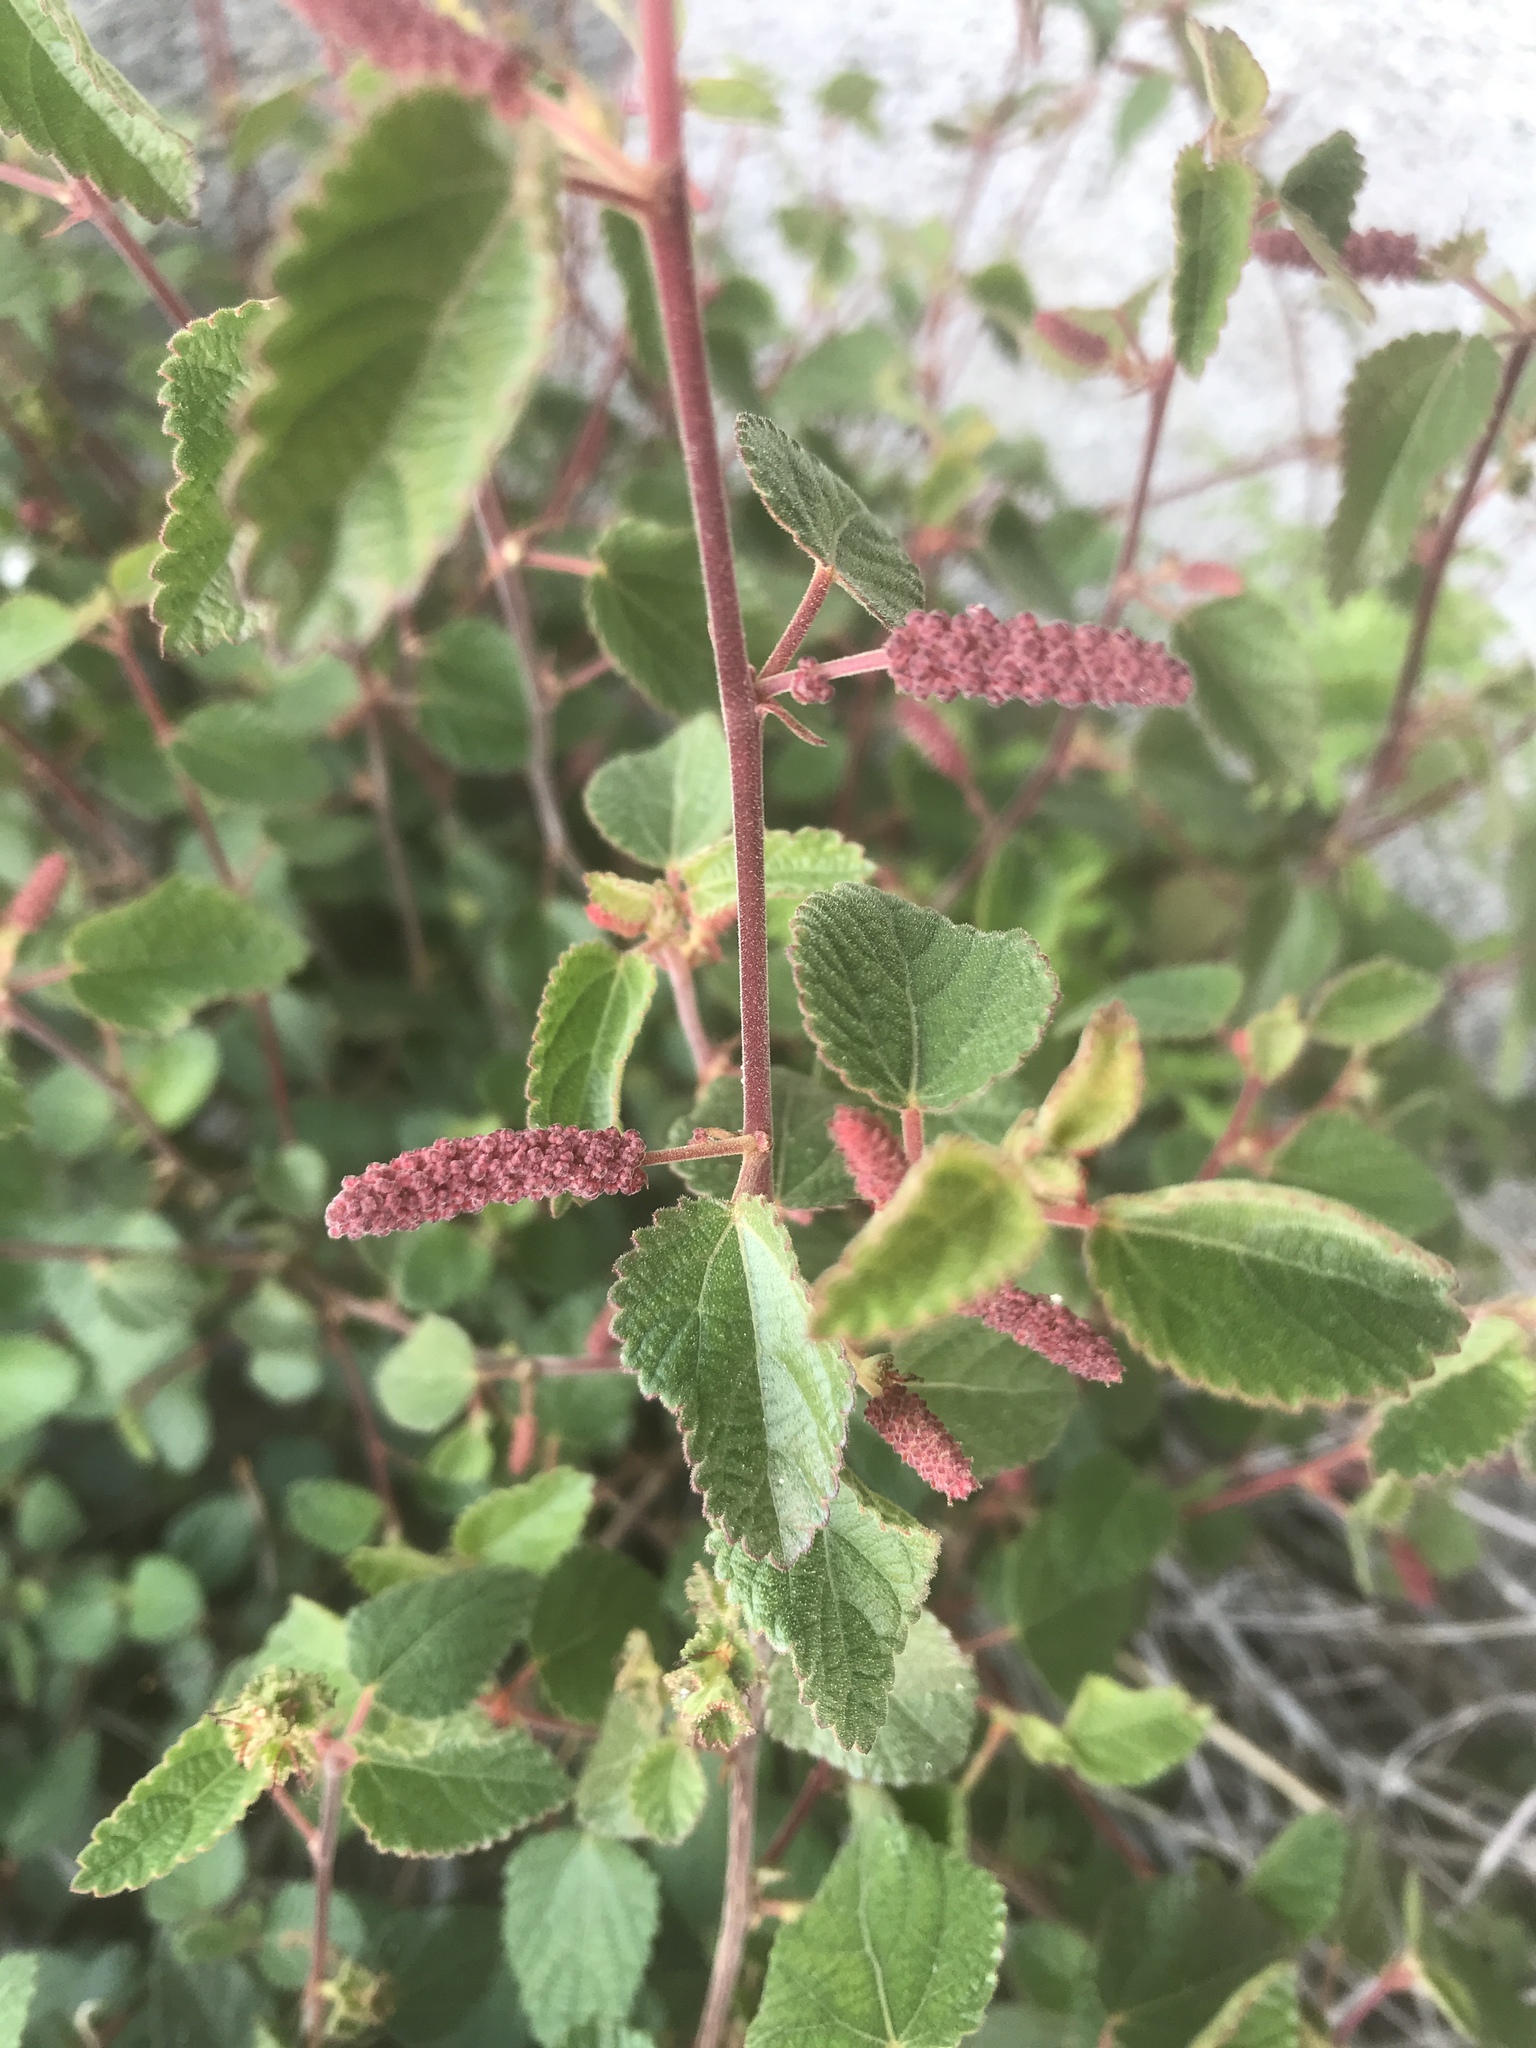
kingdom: Plantae
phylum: Tracheophyta
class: Magnoliopsida
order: Malpighiales
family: Euphorbiaceae
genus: Acalypha
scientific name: Acalypha californica
